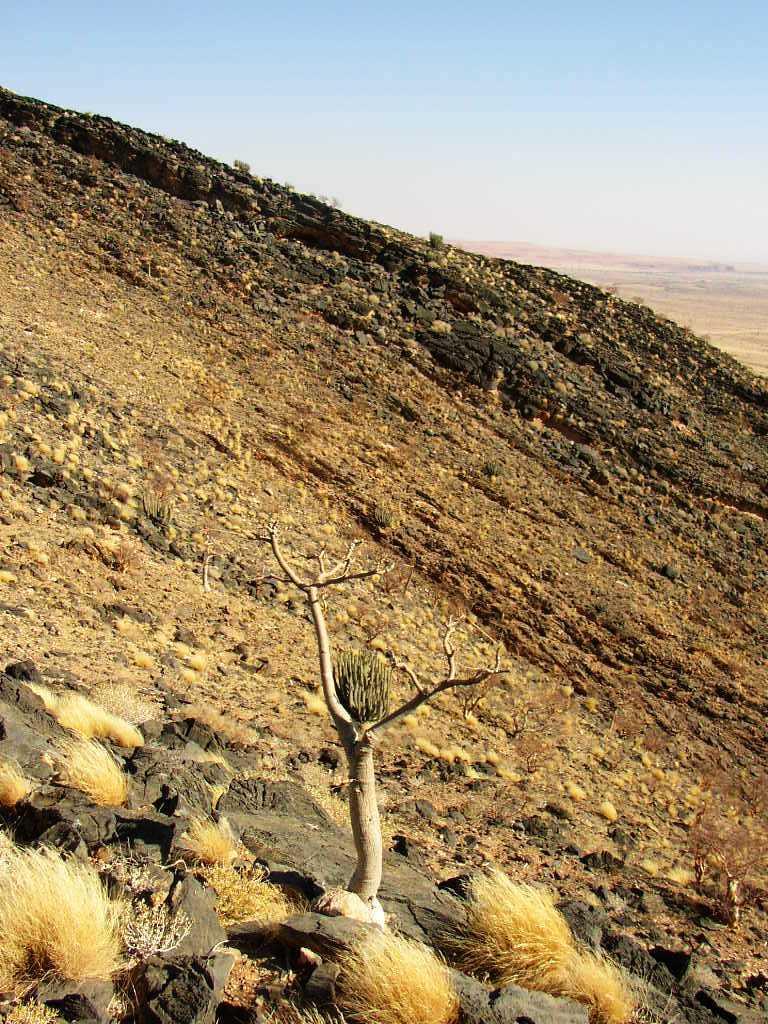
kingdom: Plantae
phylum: Tracheophyta
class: Magnoliopsida
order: Brassicales
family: Moringaceae
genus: Moringa
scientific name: Moringa ovalifolia
